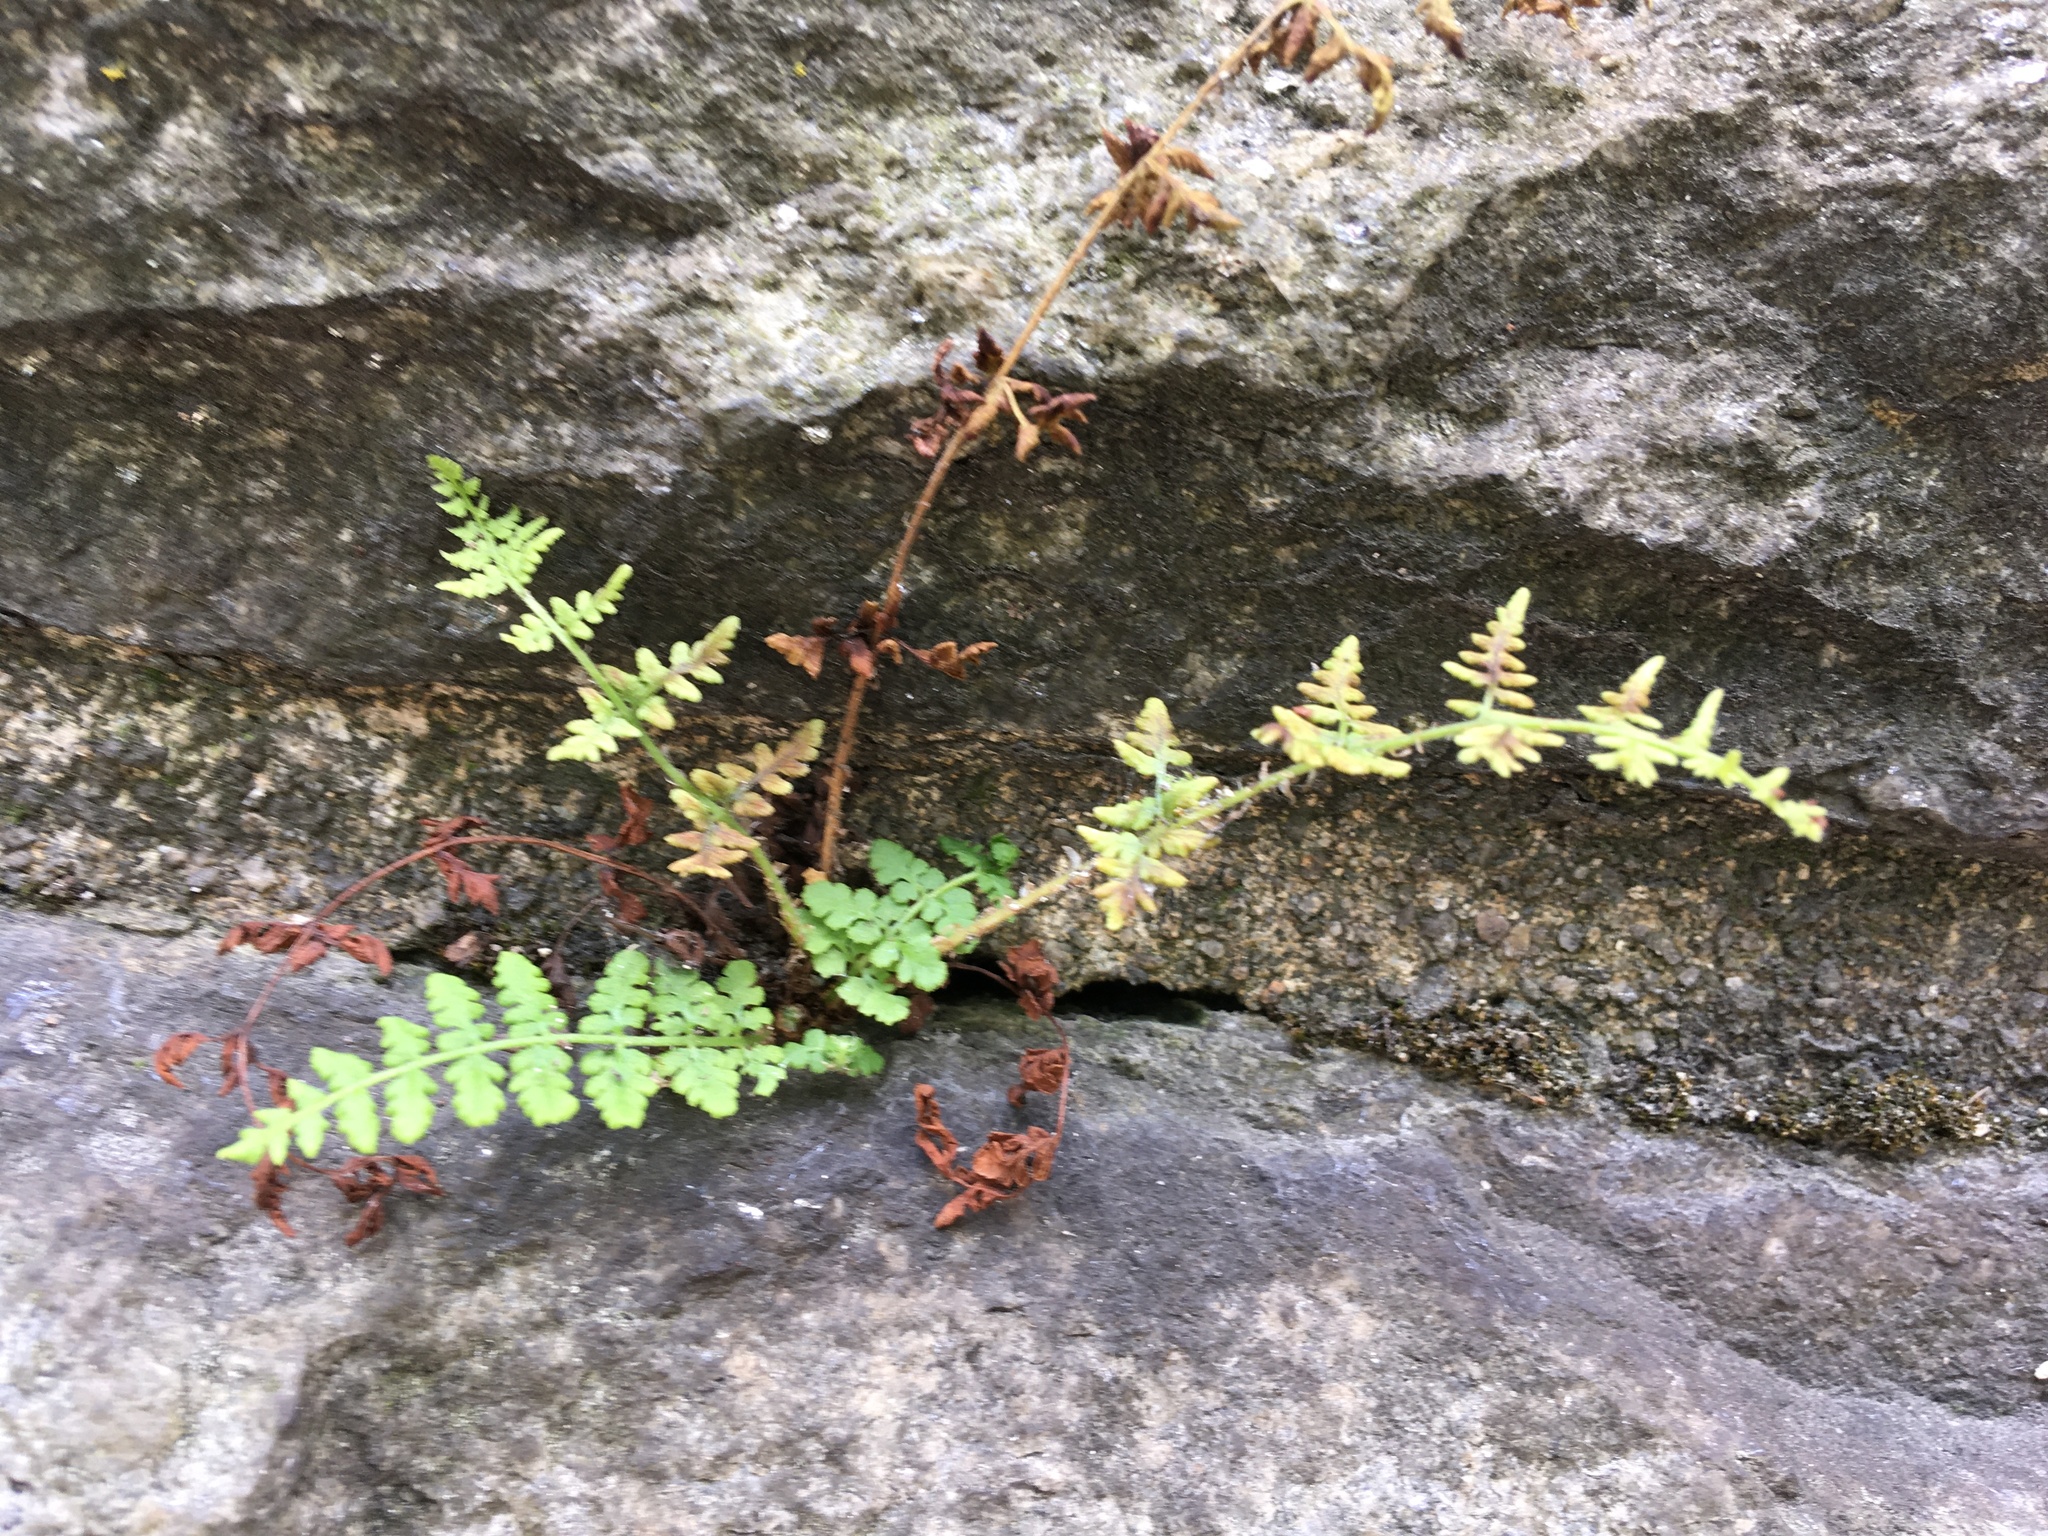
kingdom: Plantae
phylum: Tracheophyta
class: Polypodiopsida
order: Polypodiales
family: Woodsiaceae
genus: Physematium
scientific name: Physematium obtusum
